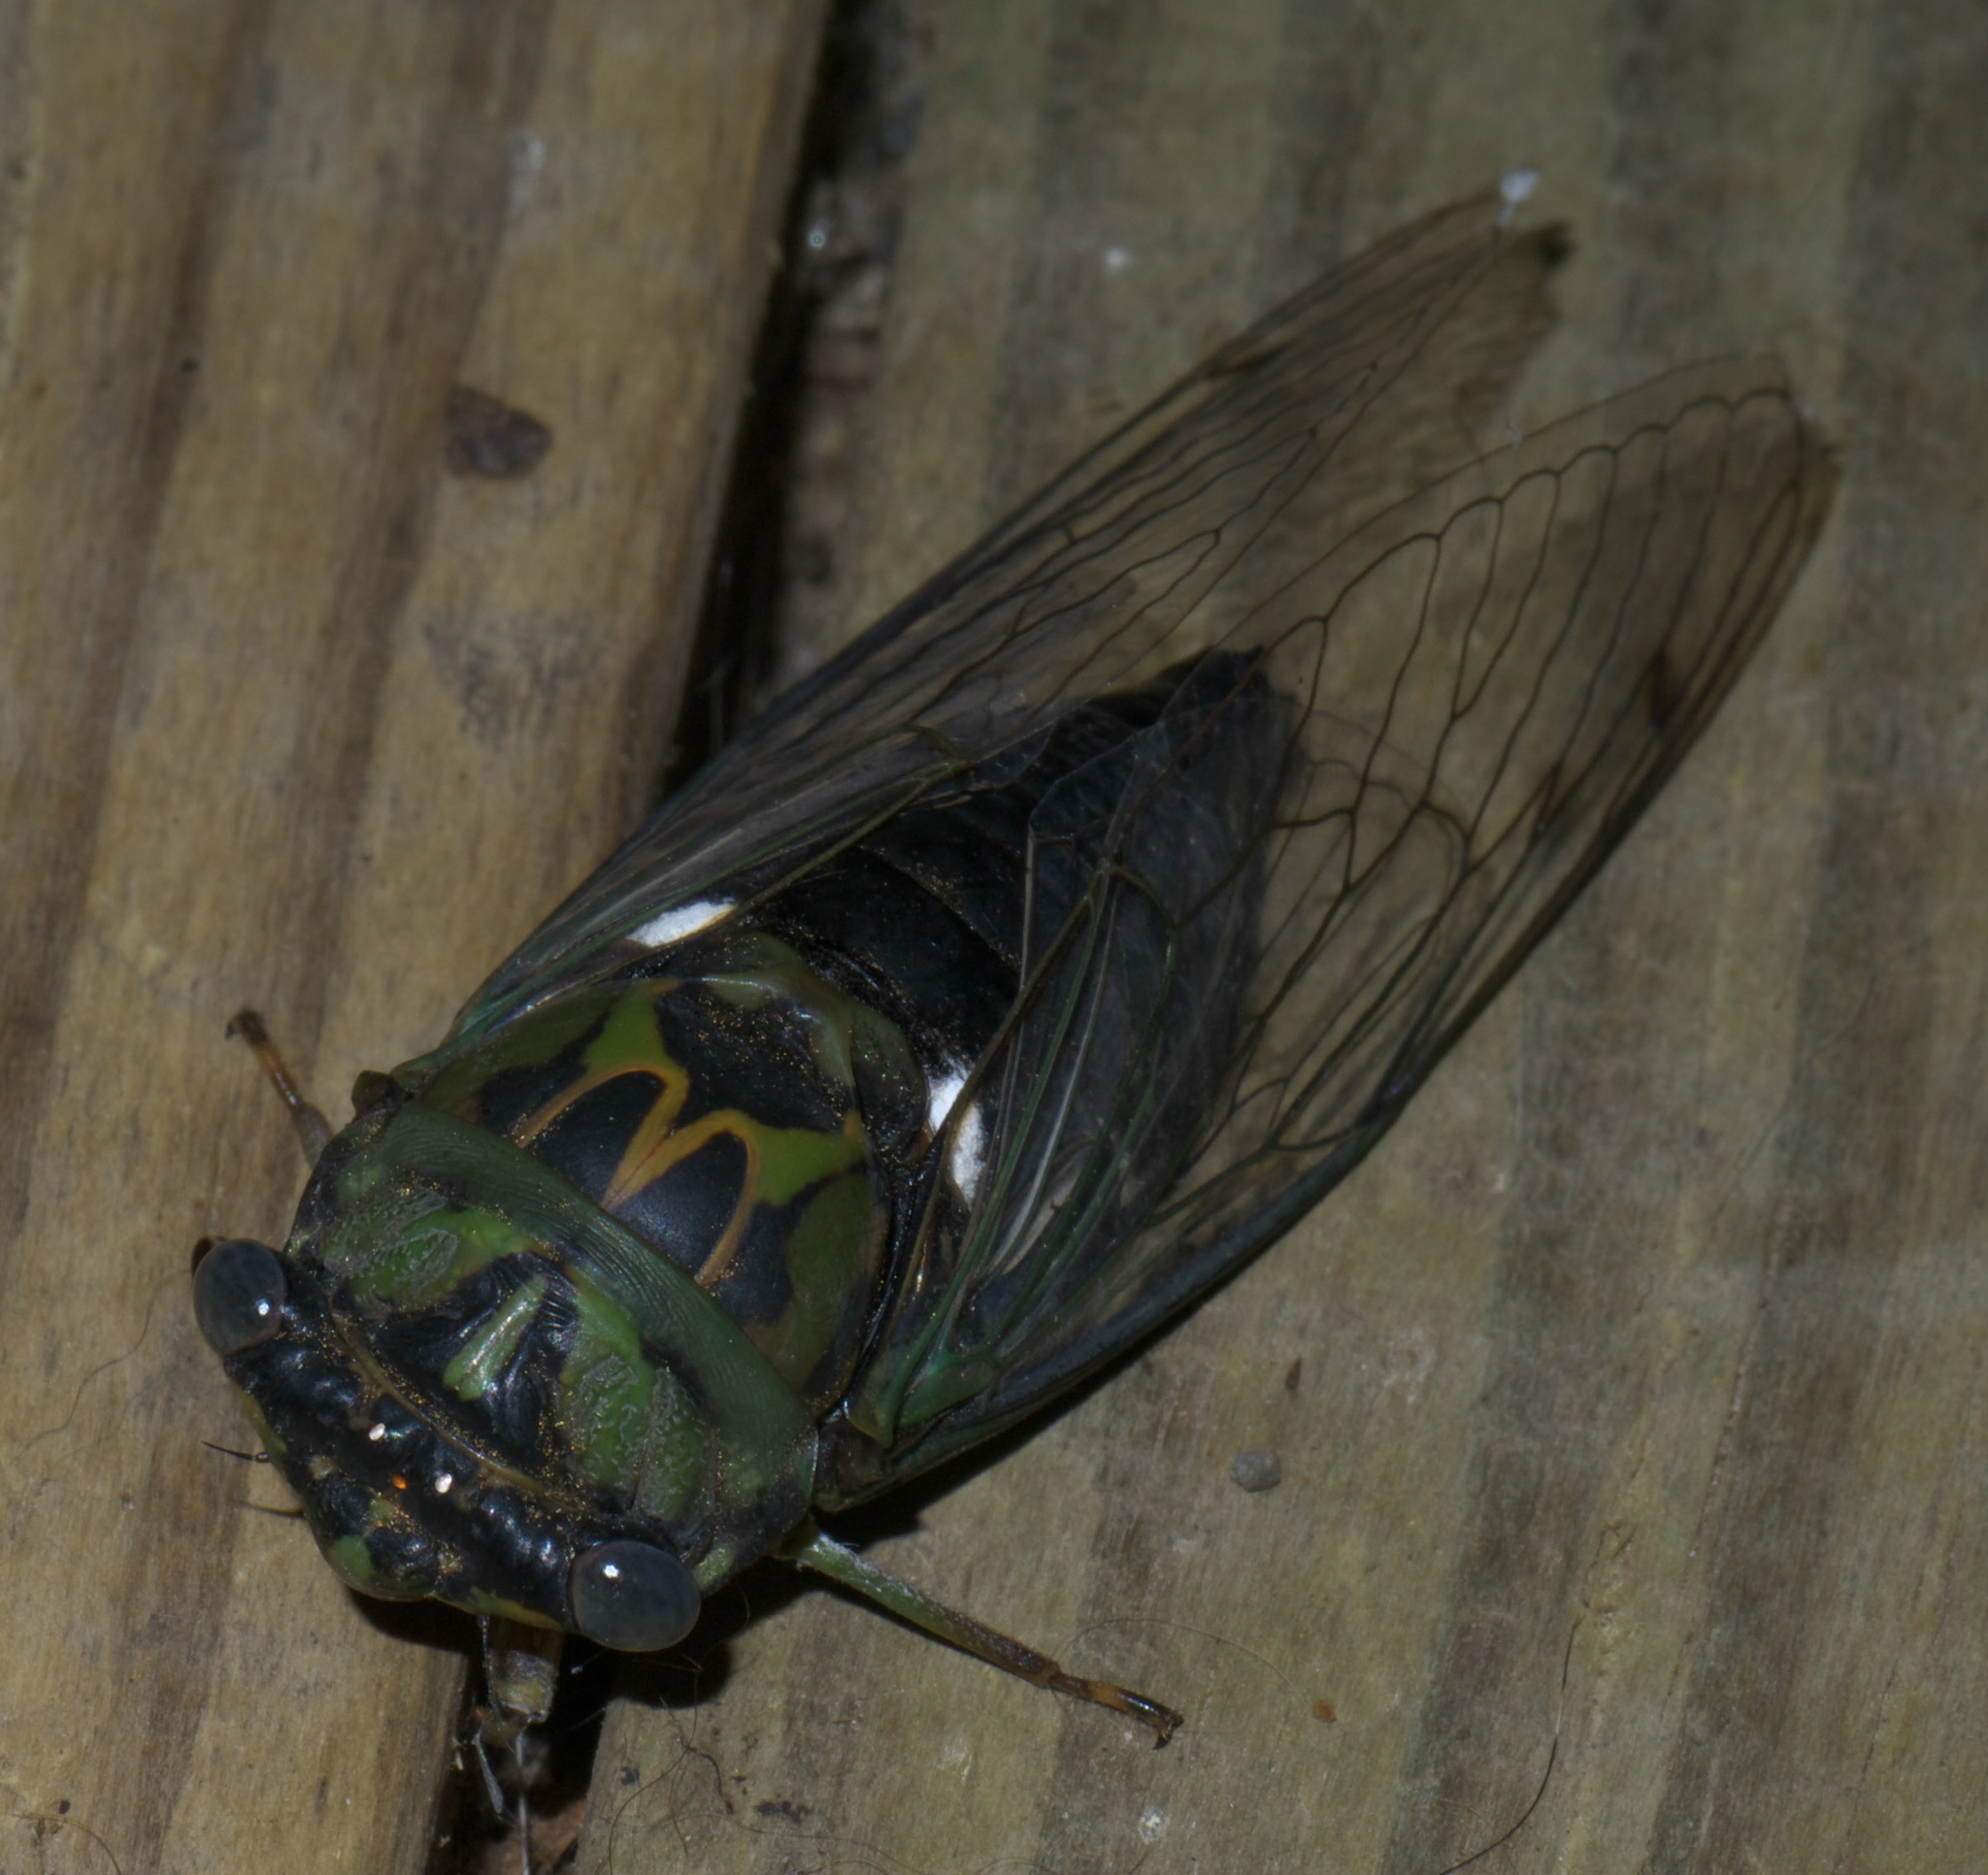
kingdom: Animalia
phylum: Arthropoda
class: Insecta
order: Hemiptera
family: Cicadidae
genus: Neotibicen
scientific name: Neotibicen pruinosus
